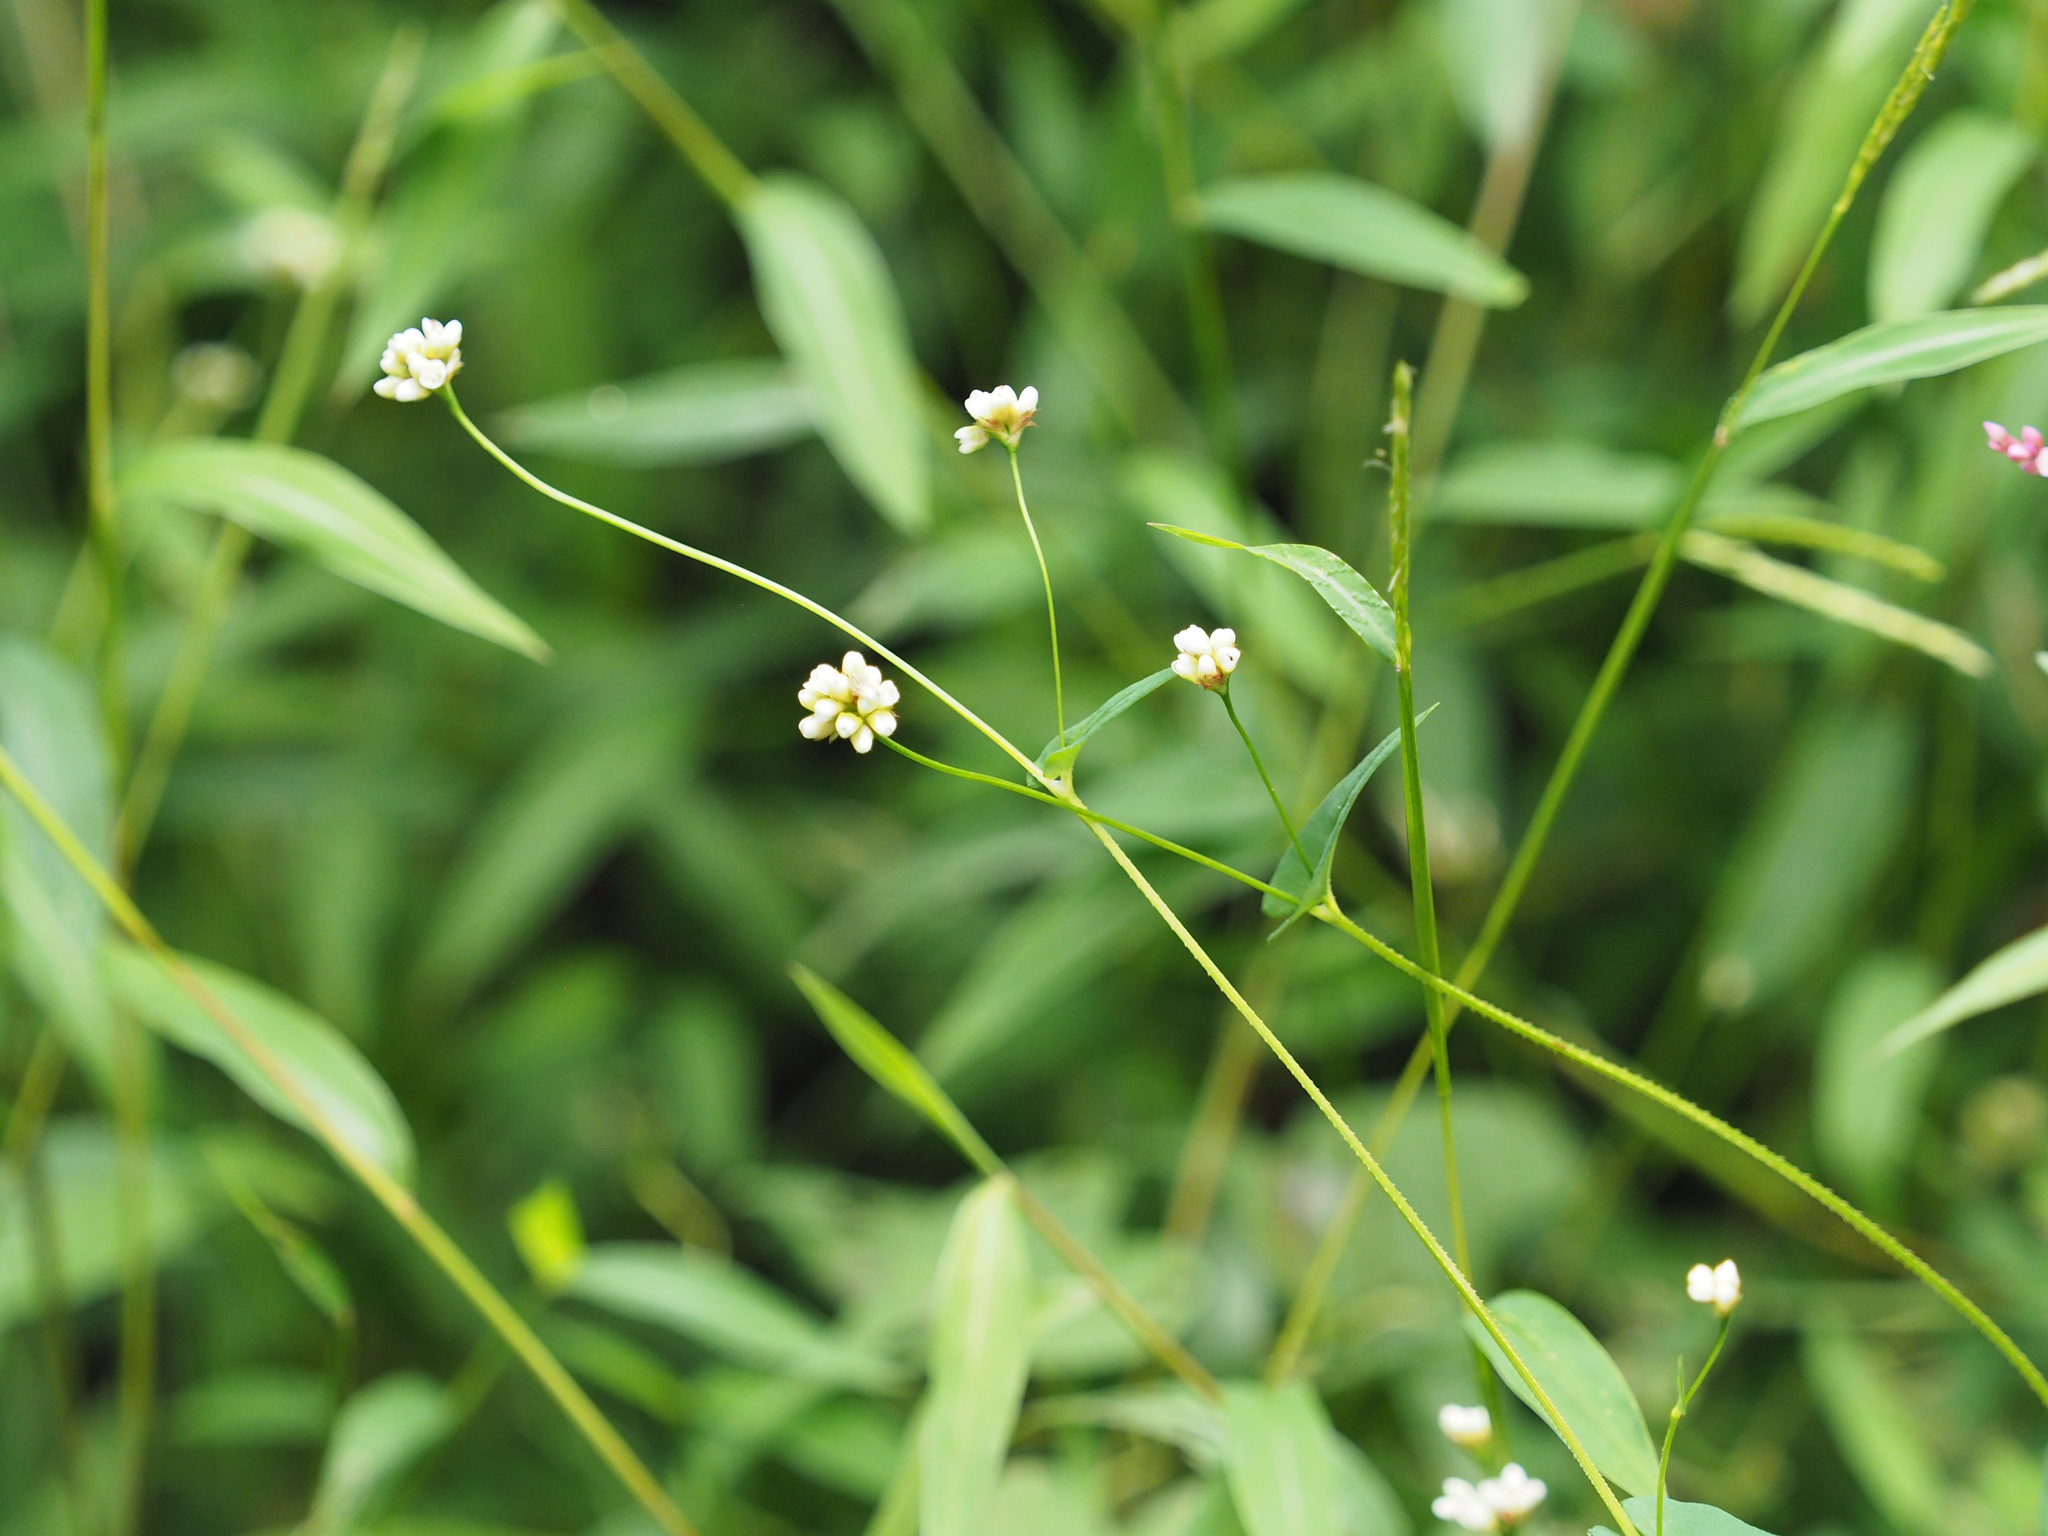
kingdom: Plantae
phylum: Tracheophyta
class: Magnoliopsida
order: Caryophyllales
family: Polygonaceae
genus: Persicaria
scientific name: Persicaria sagittata
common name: American tearthumb
